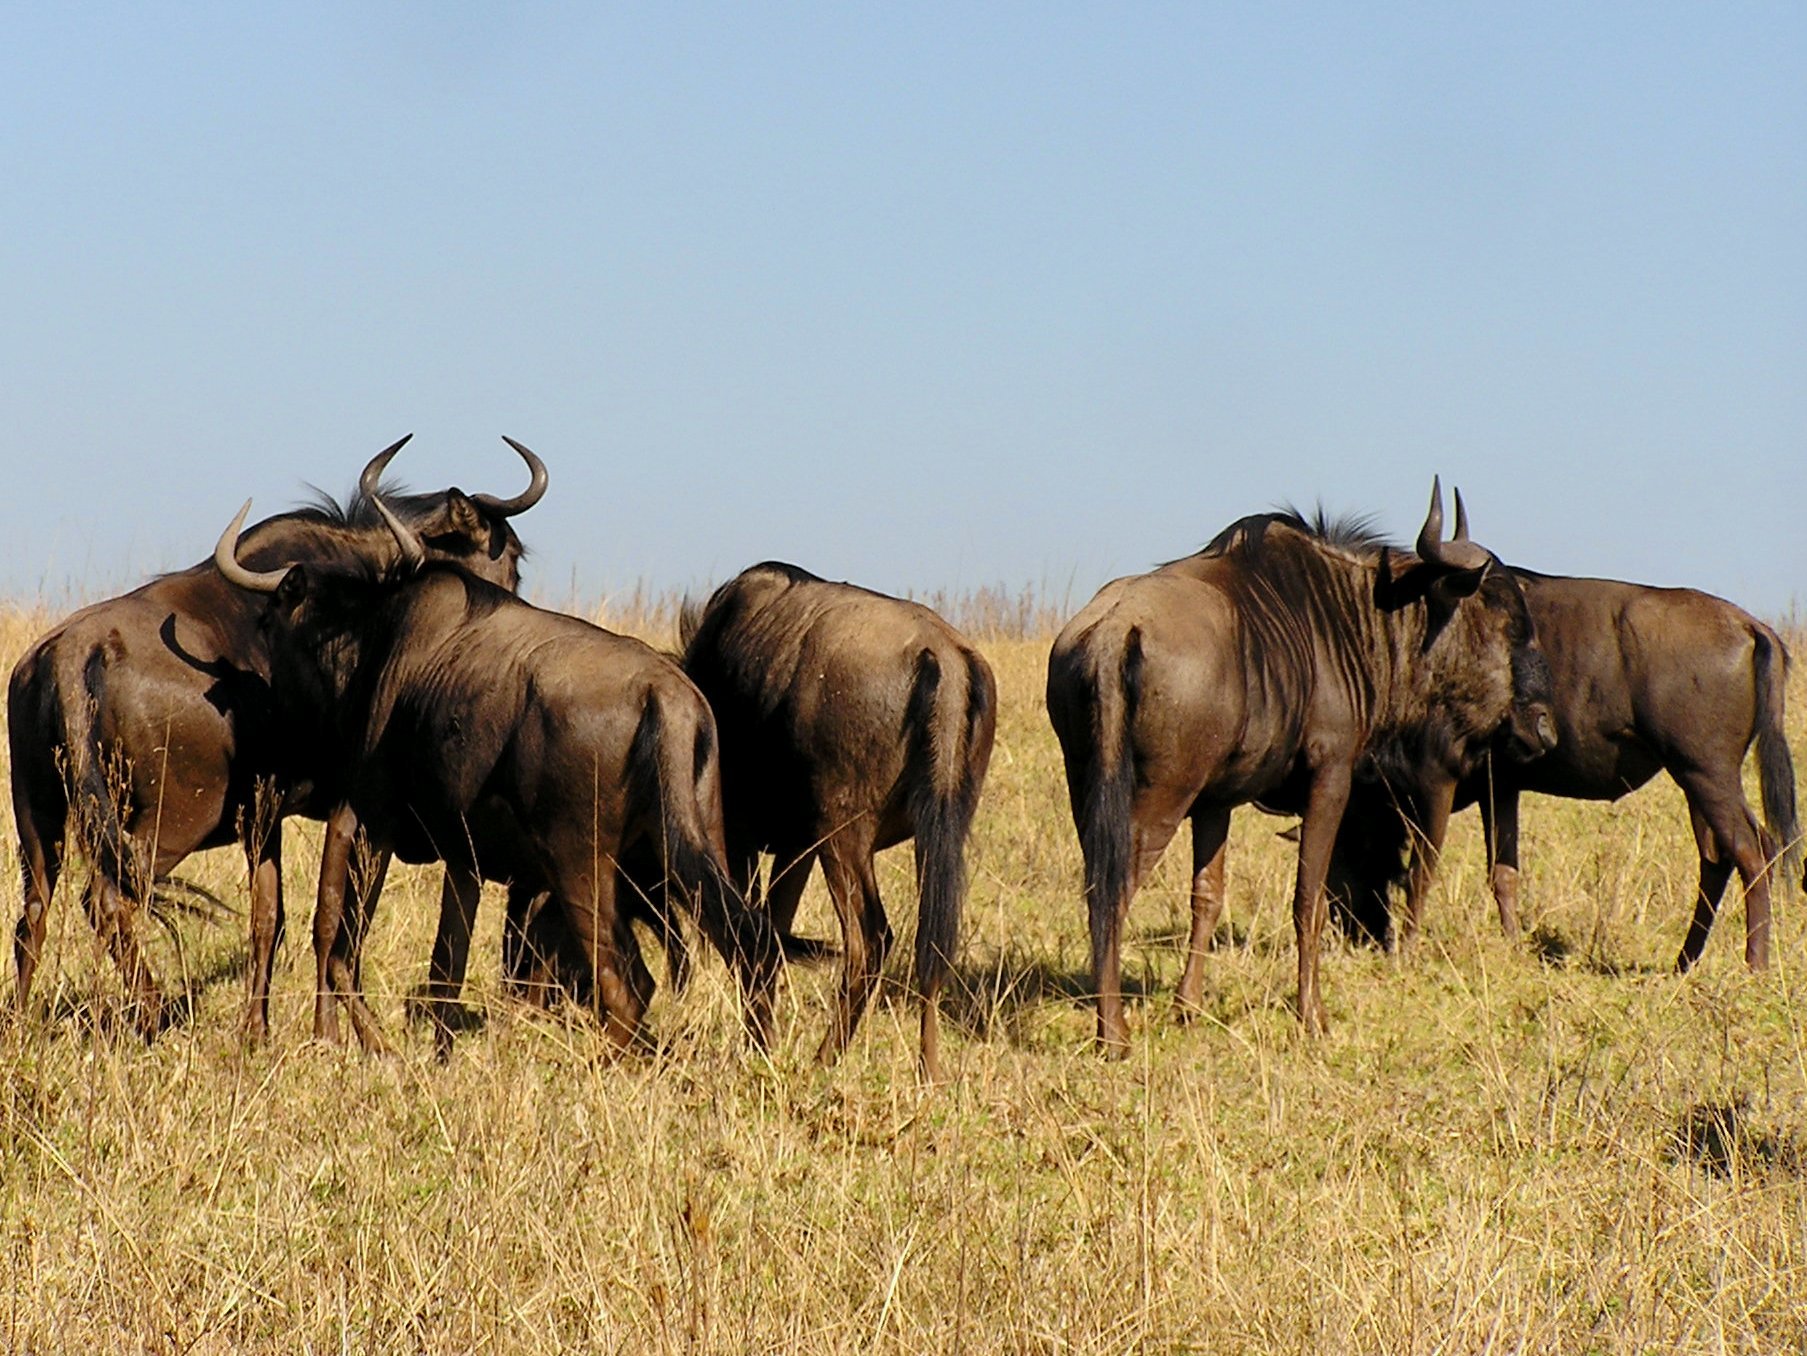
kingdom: Animalia
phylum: Chordata
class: Mammalia
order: Artiodactyla
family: Bovidae
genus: Connochaetes
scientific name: Connochaetes taurinus
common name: Blue wildebeest
